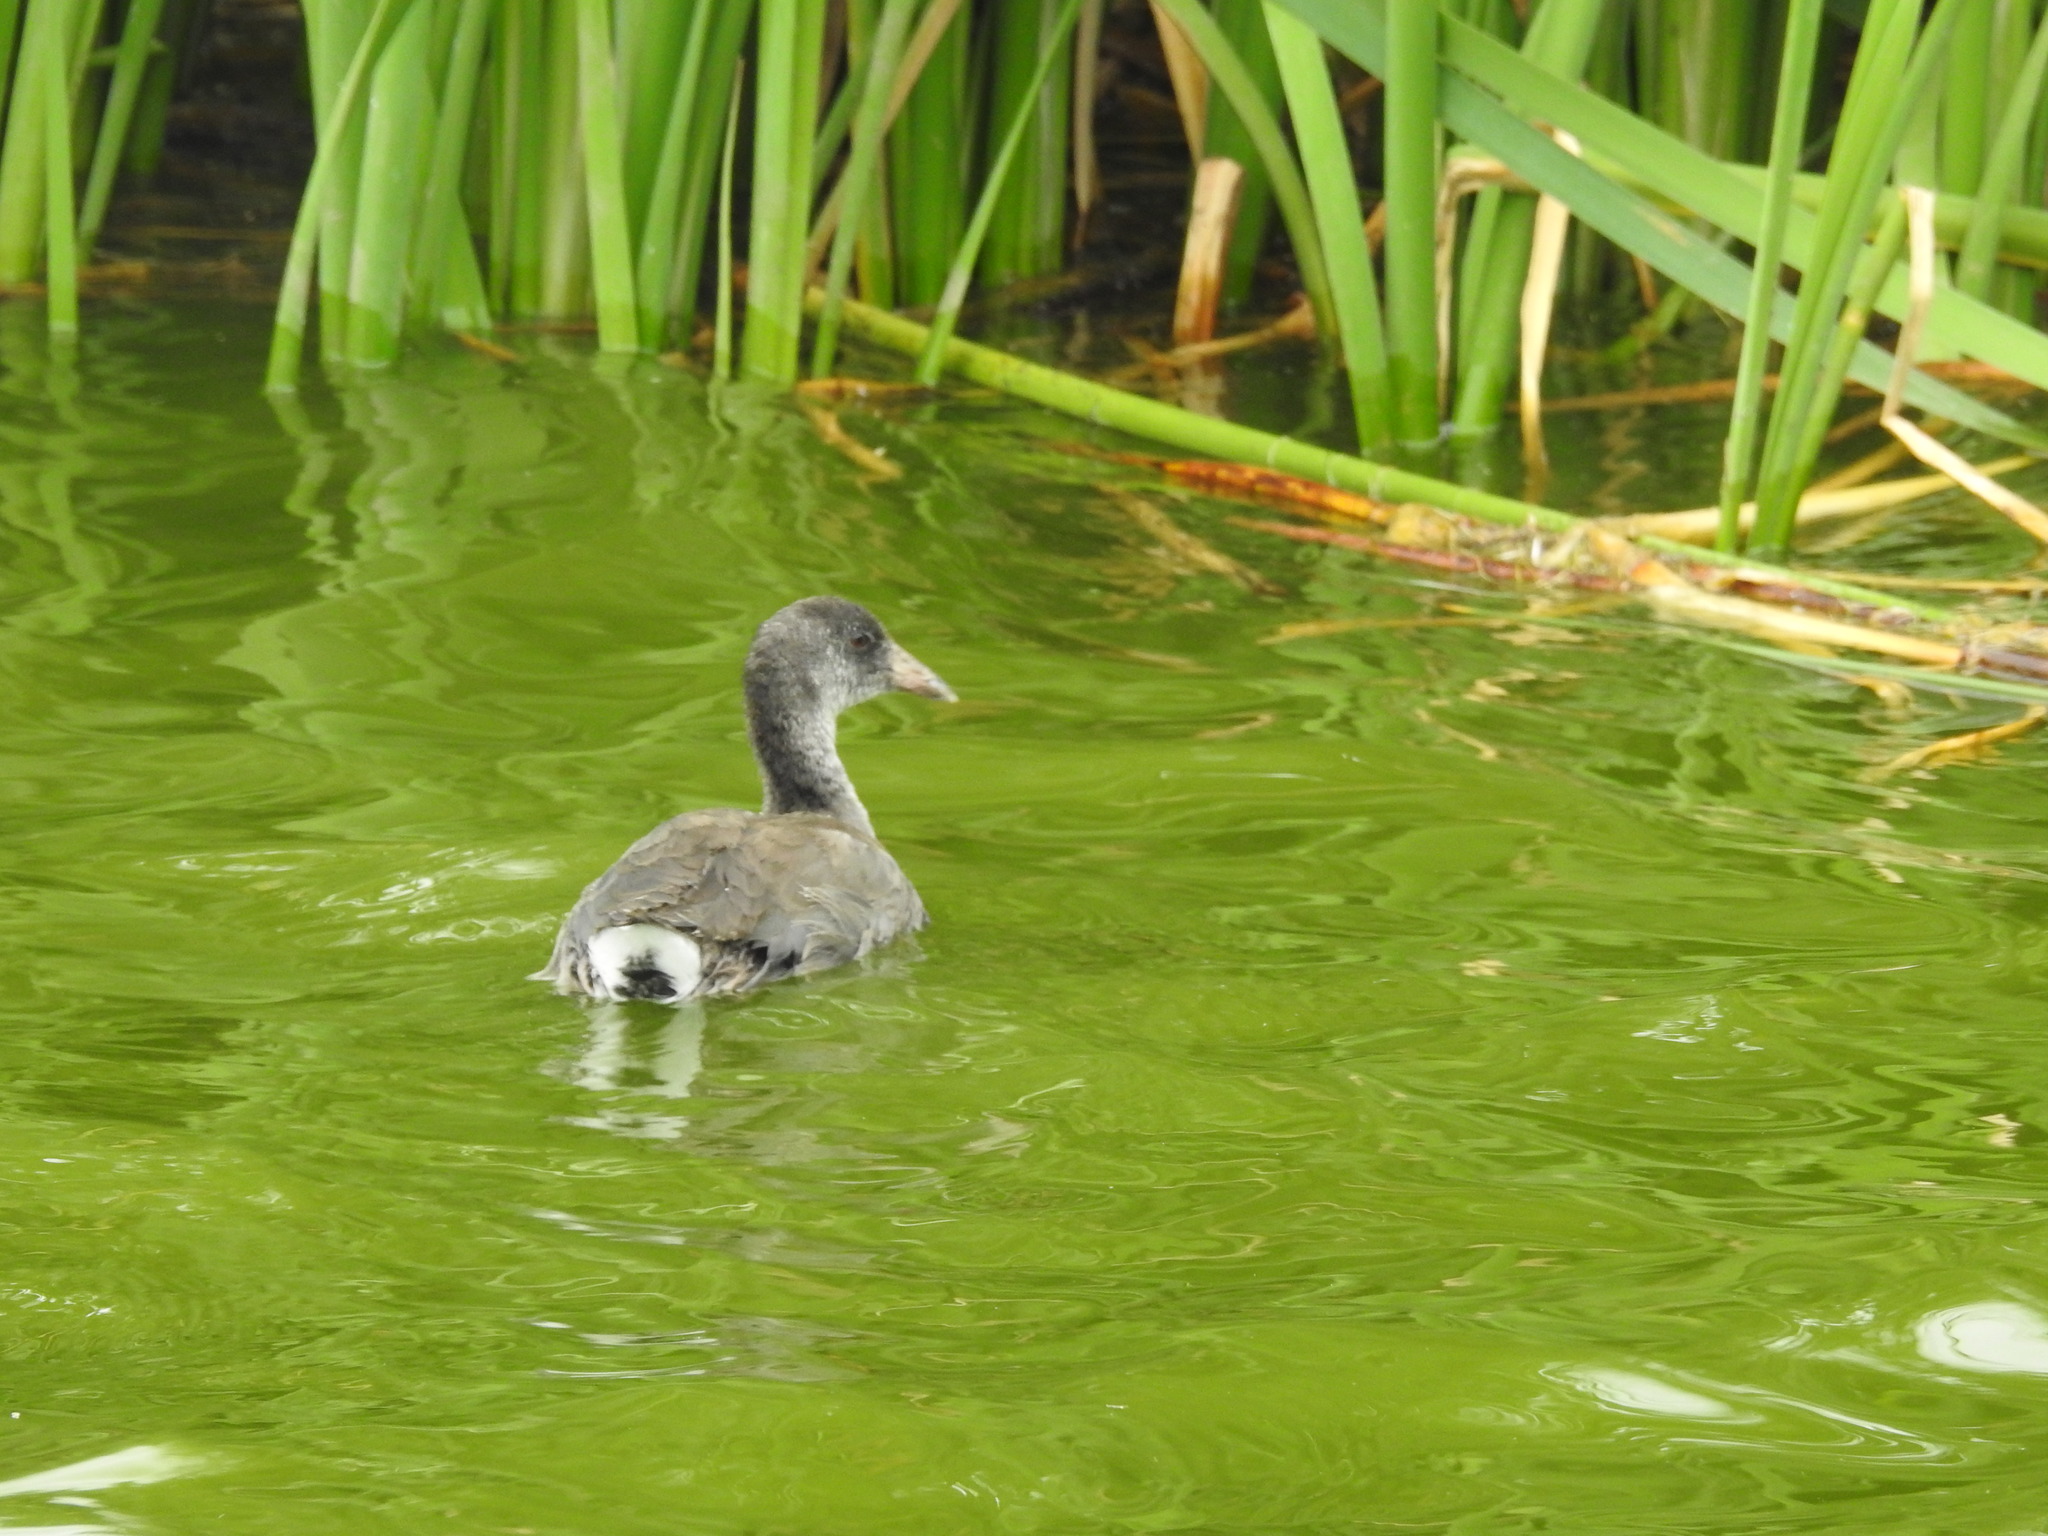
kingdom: Animalia
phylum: Chordata
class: Aves
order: Gruiformes
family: Rallidae
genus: Fulica
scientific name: Fulica americana
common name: American coot
